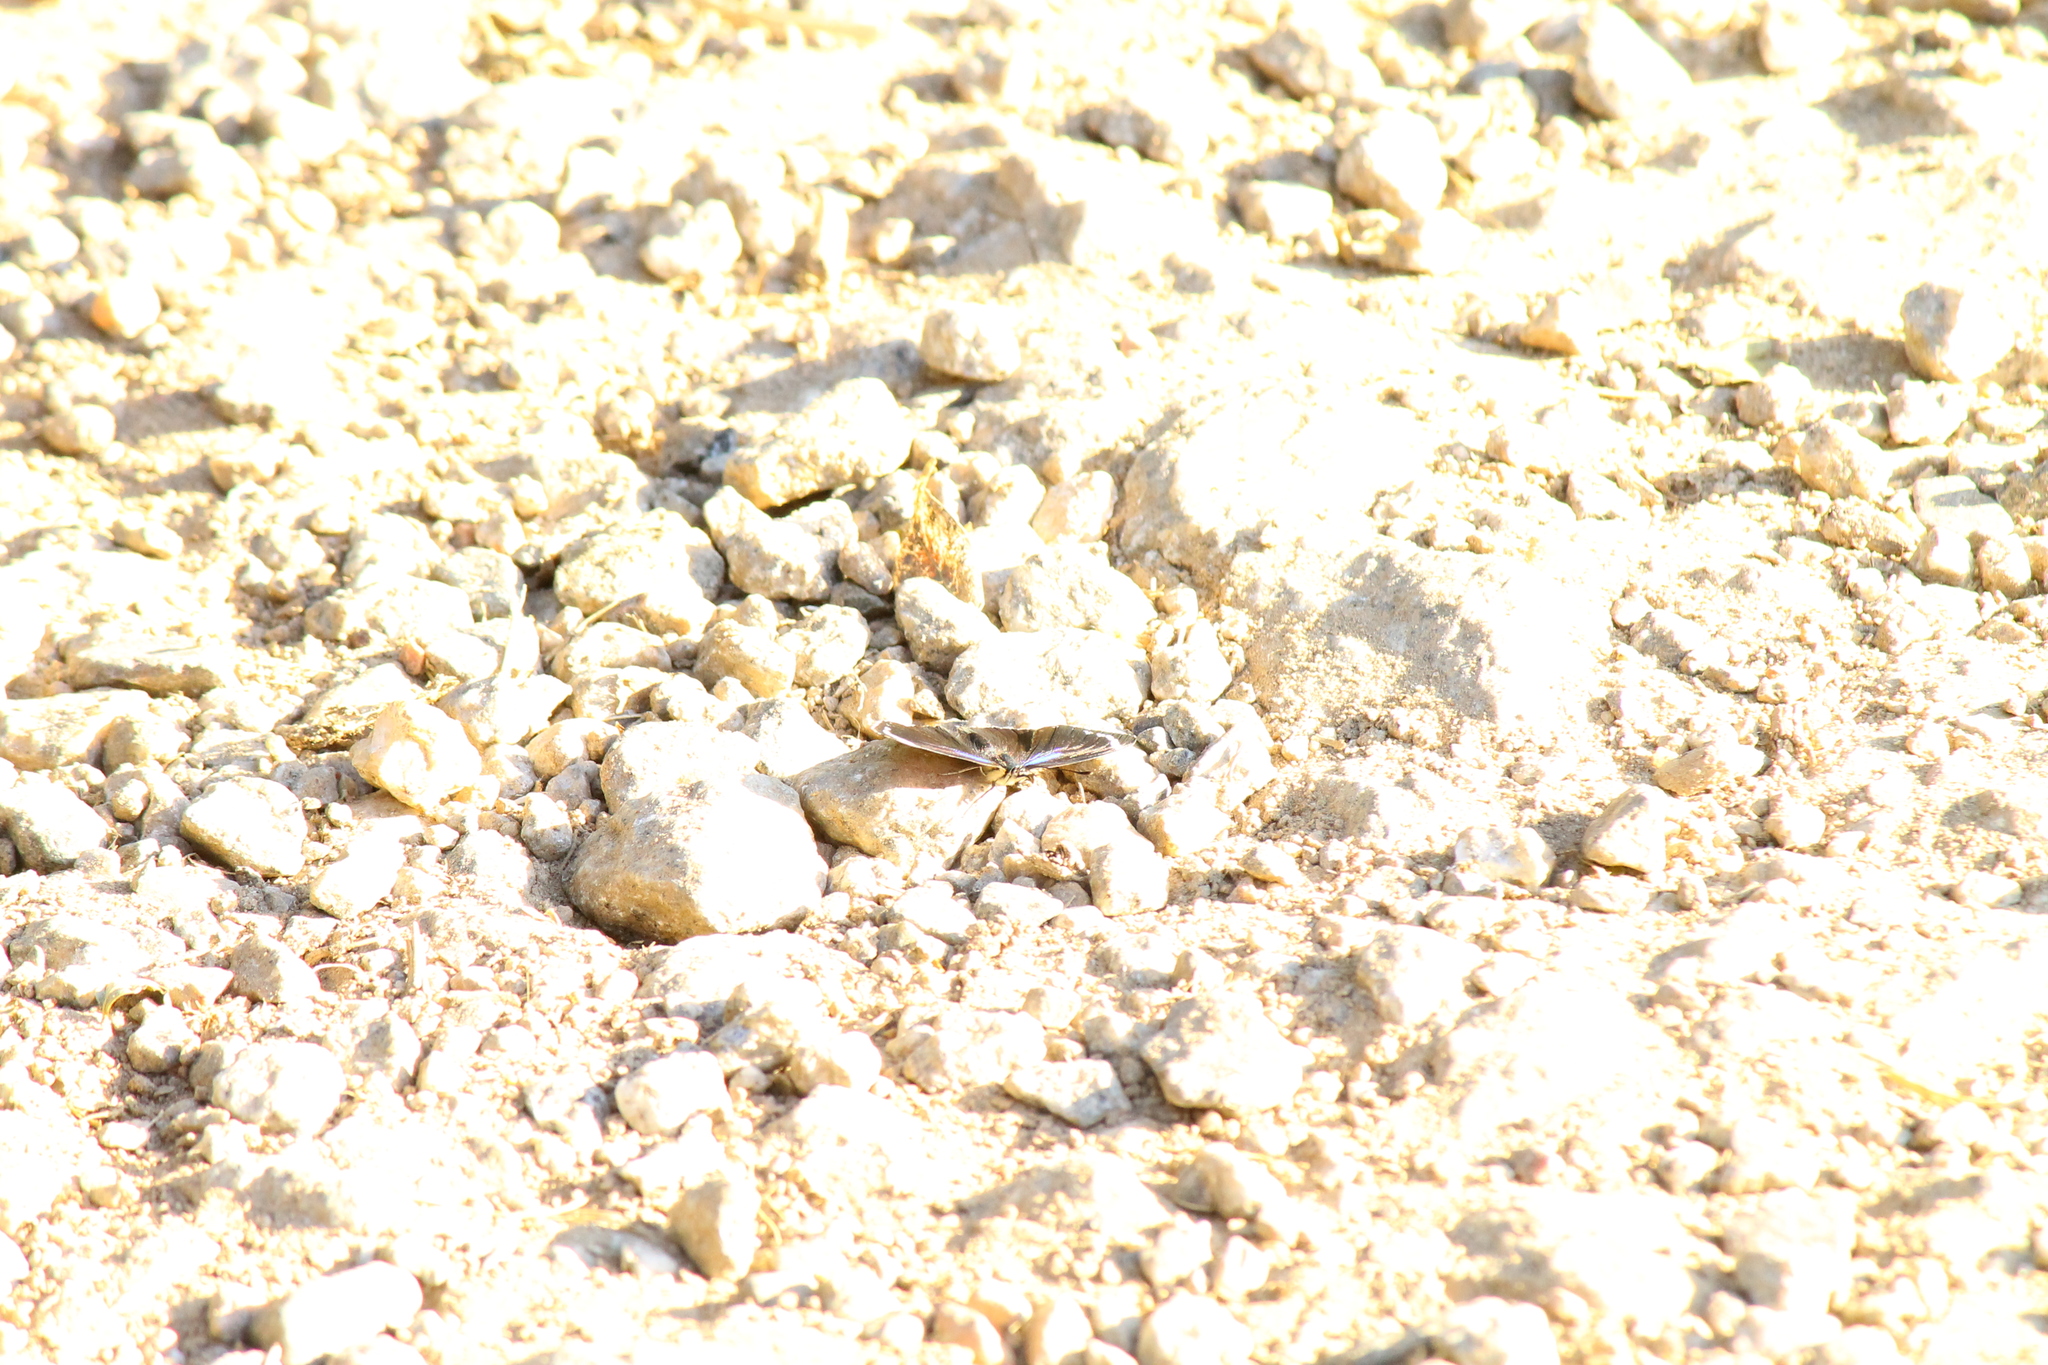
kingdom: Animalia
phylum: Arthropoda
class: Insecta
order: Lepidoptera
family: Nymphalidae
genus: Diaethria
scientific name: Diaethria candrena
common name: Number eighty
